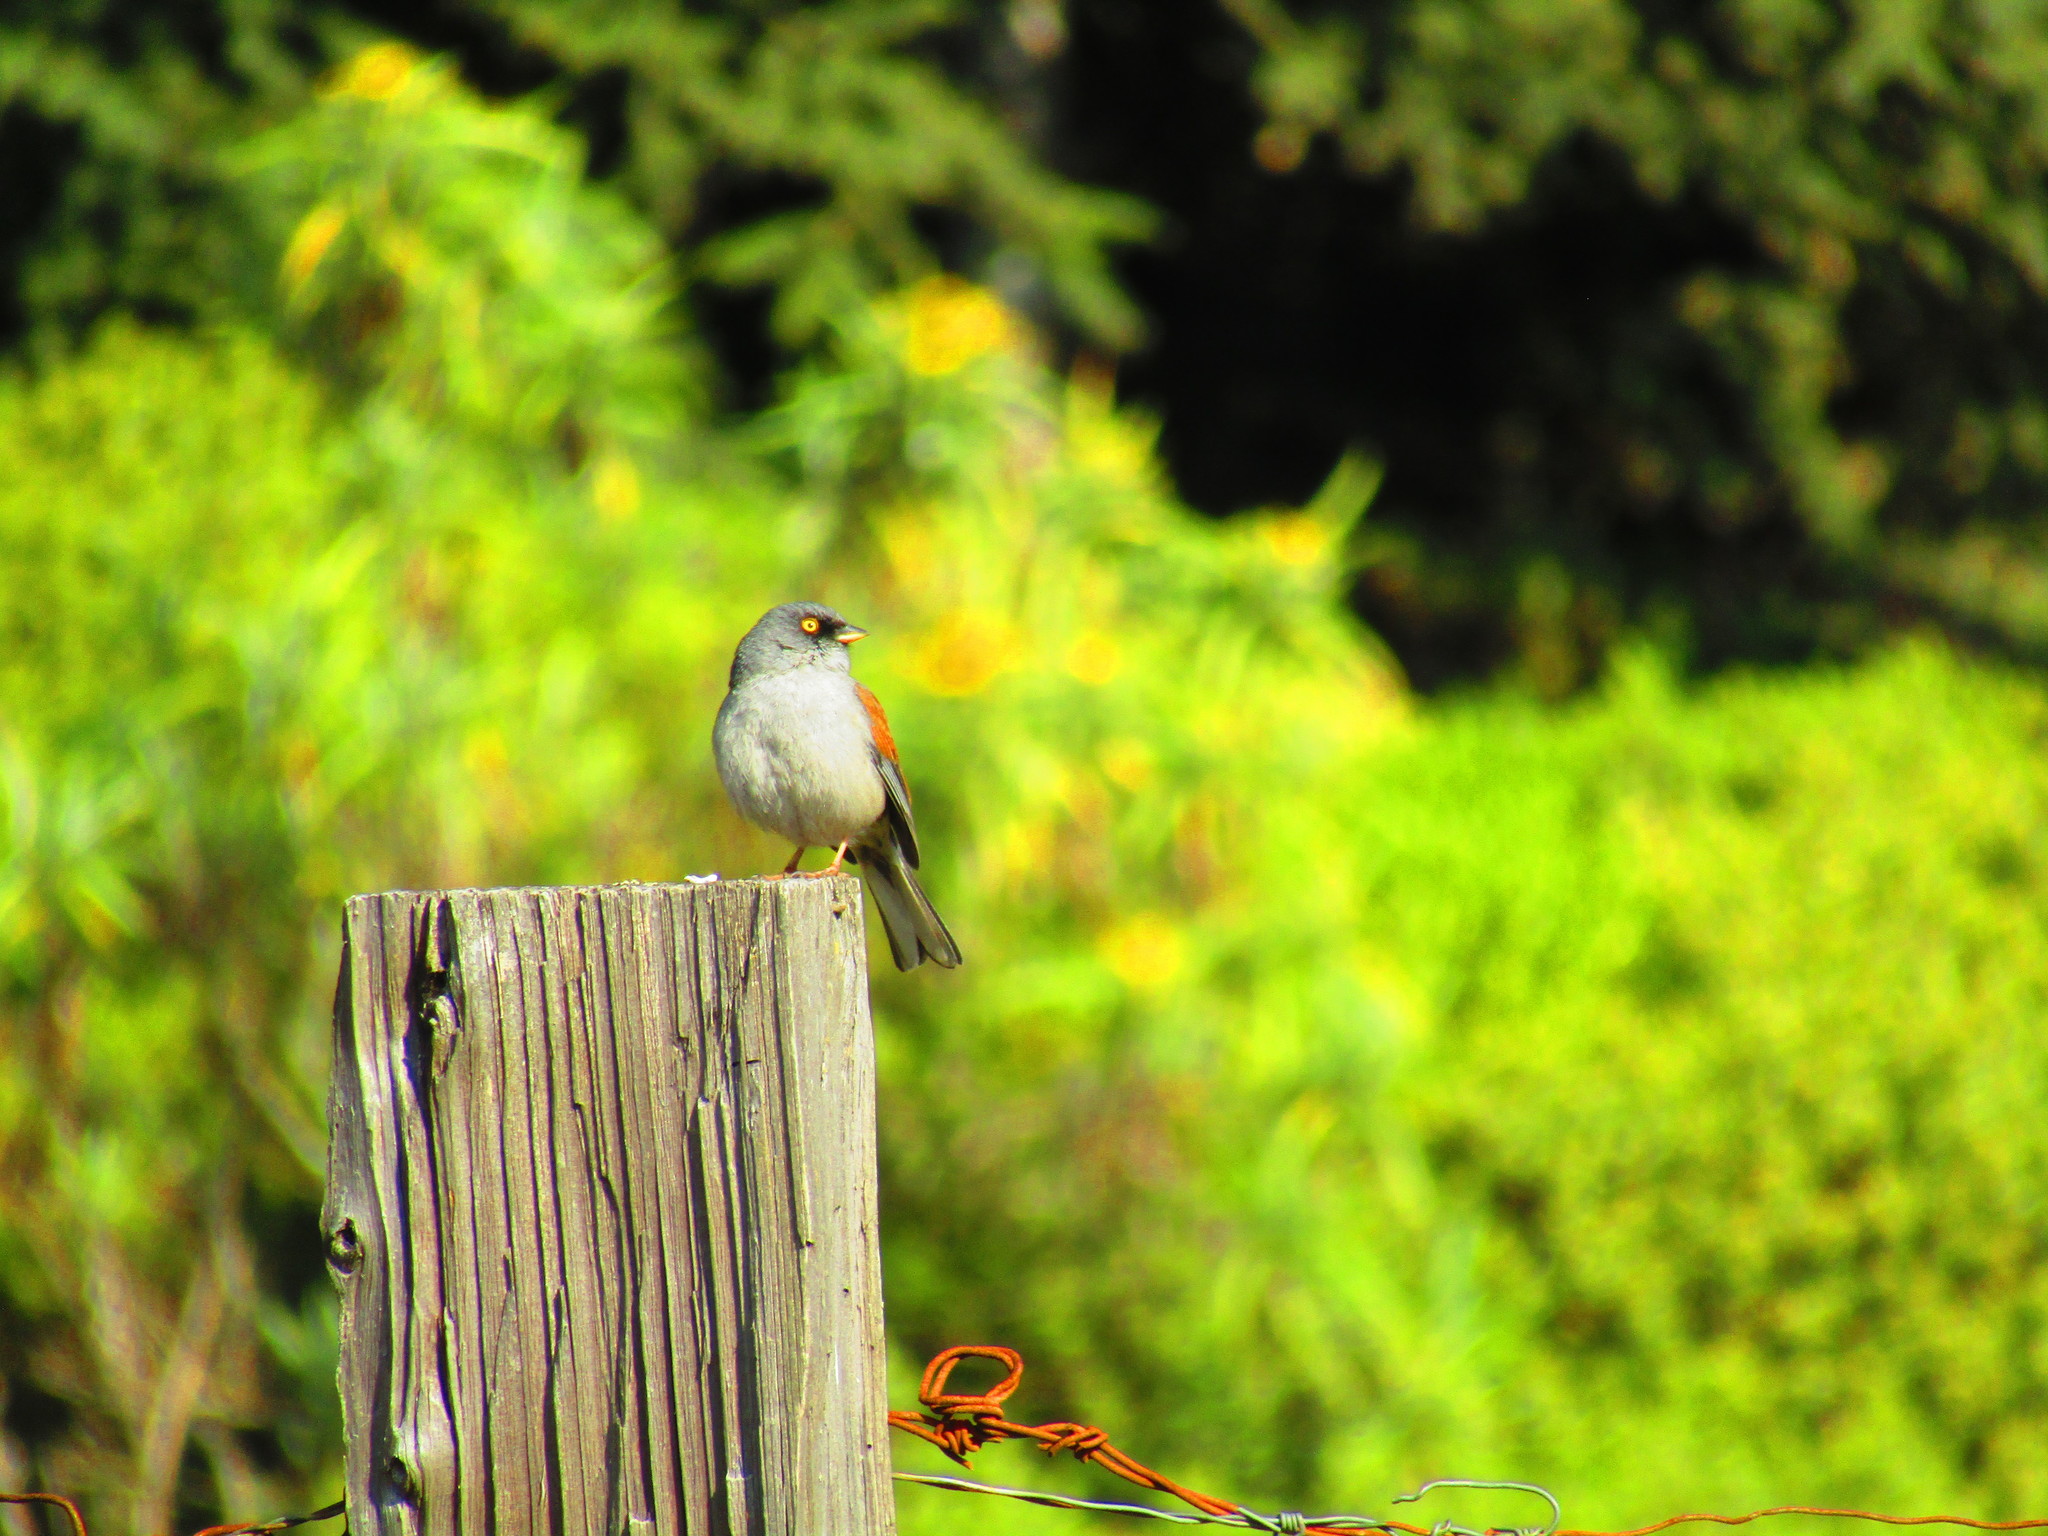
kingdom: Animalia
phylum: Chordata
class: Aves
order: Passeriformes
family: Passerellidae
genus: Junco
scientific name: Junco phaeonotus
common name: Yellow-eyed junco
